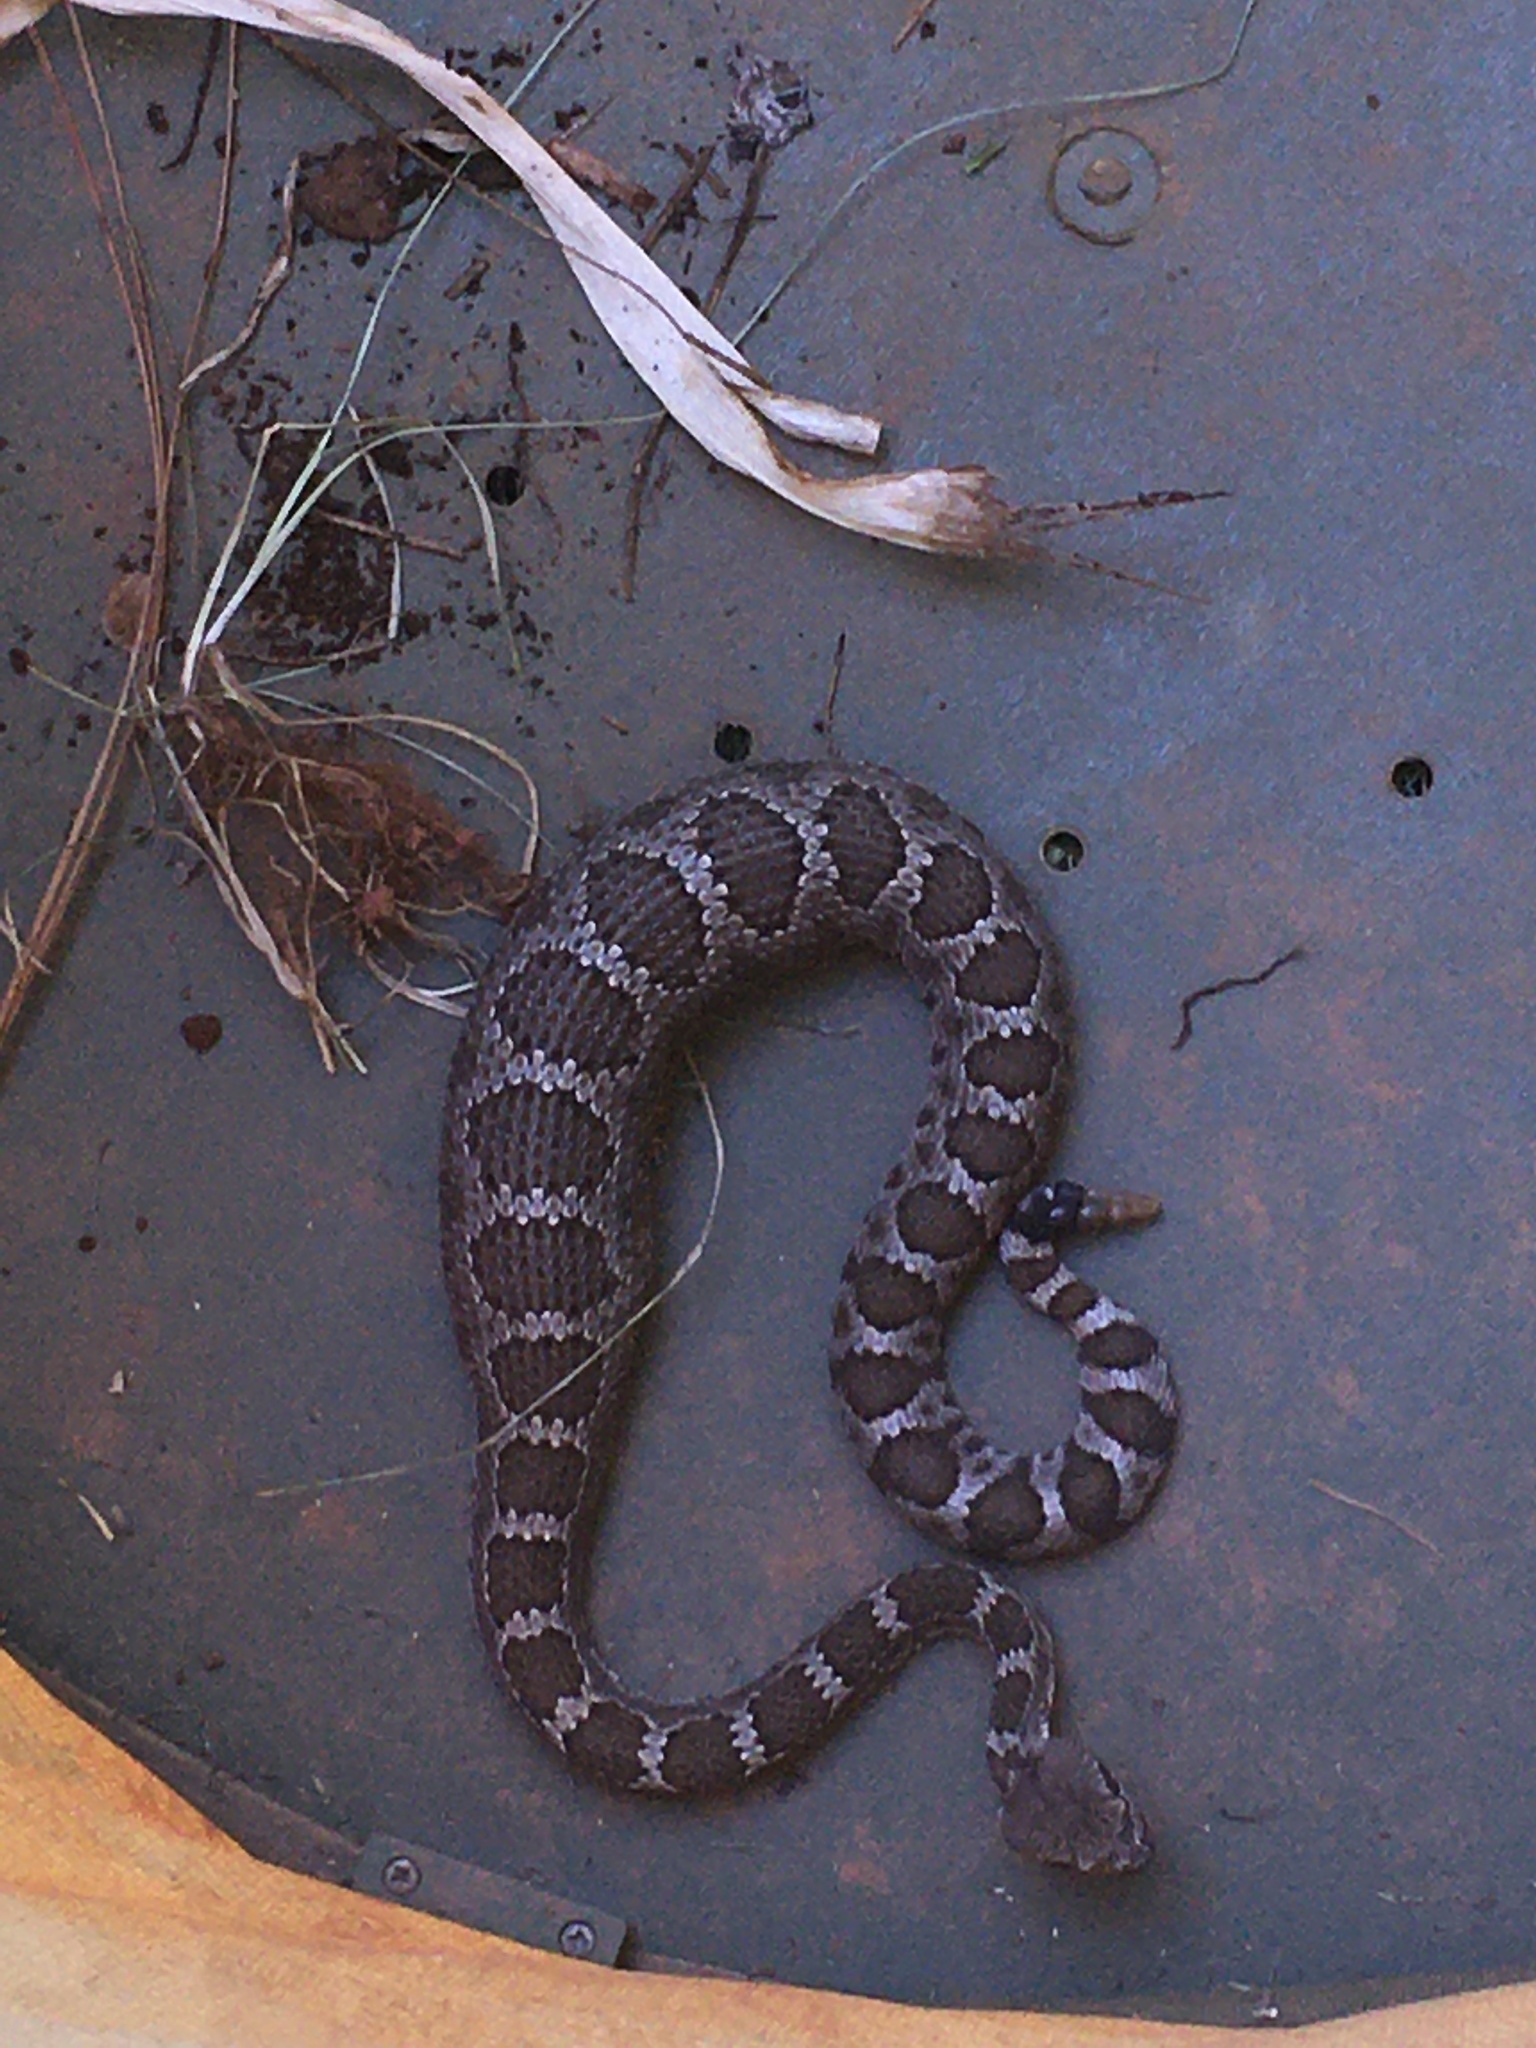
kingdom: Animalia
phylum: Chordata
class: Squamata
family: Viperidae
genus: Crotalus
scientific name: Crotalus oreganus
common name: Abyssus
